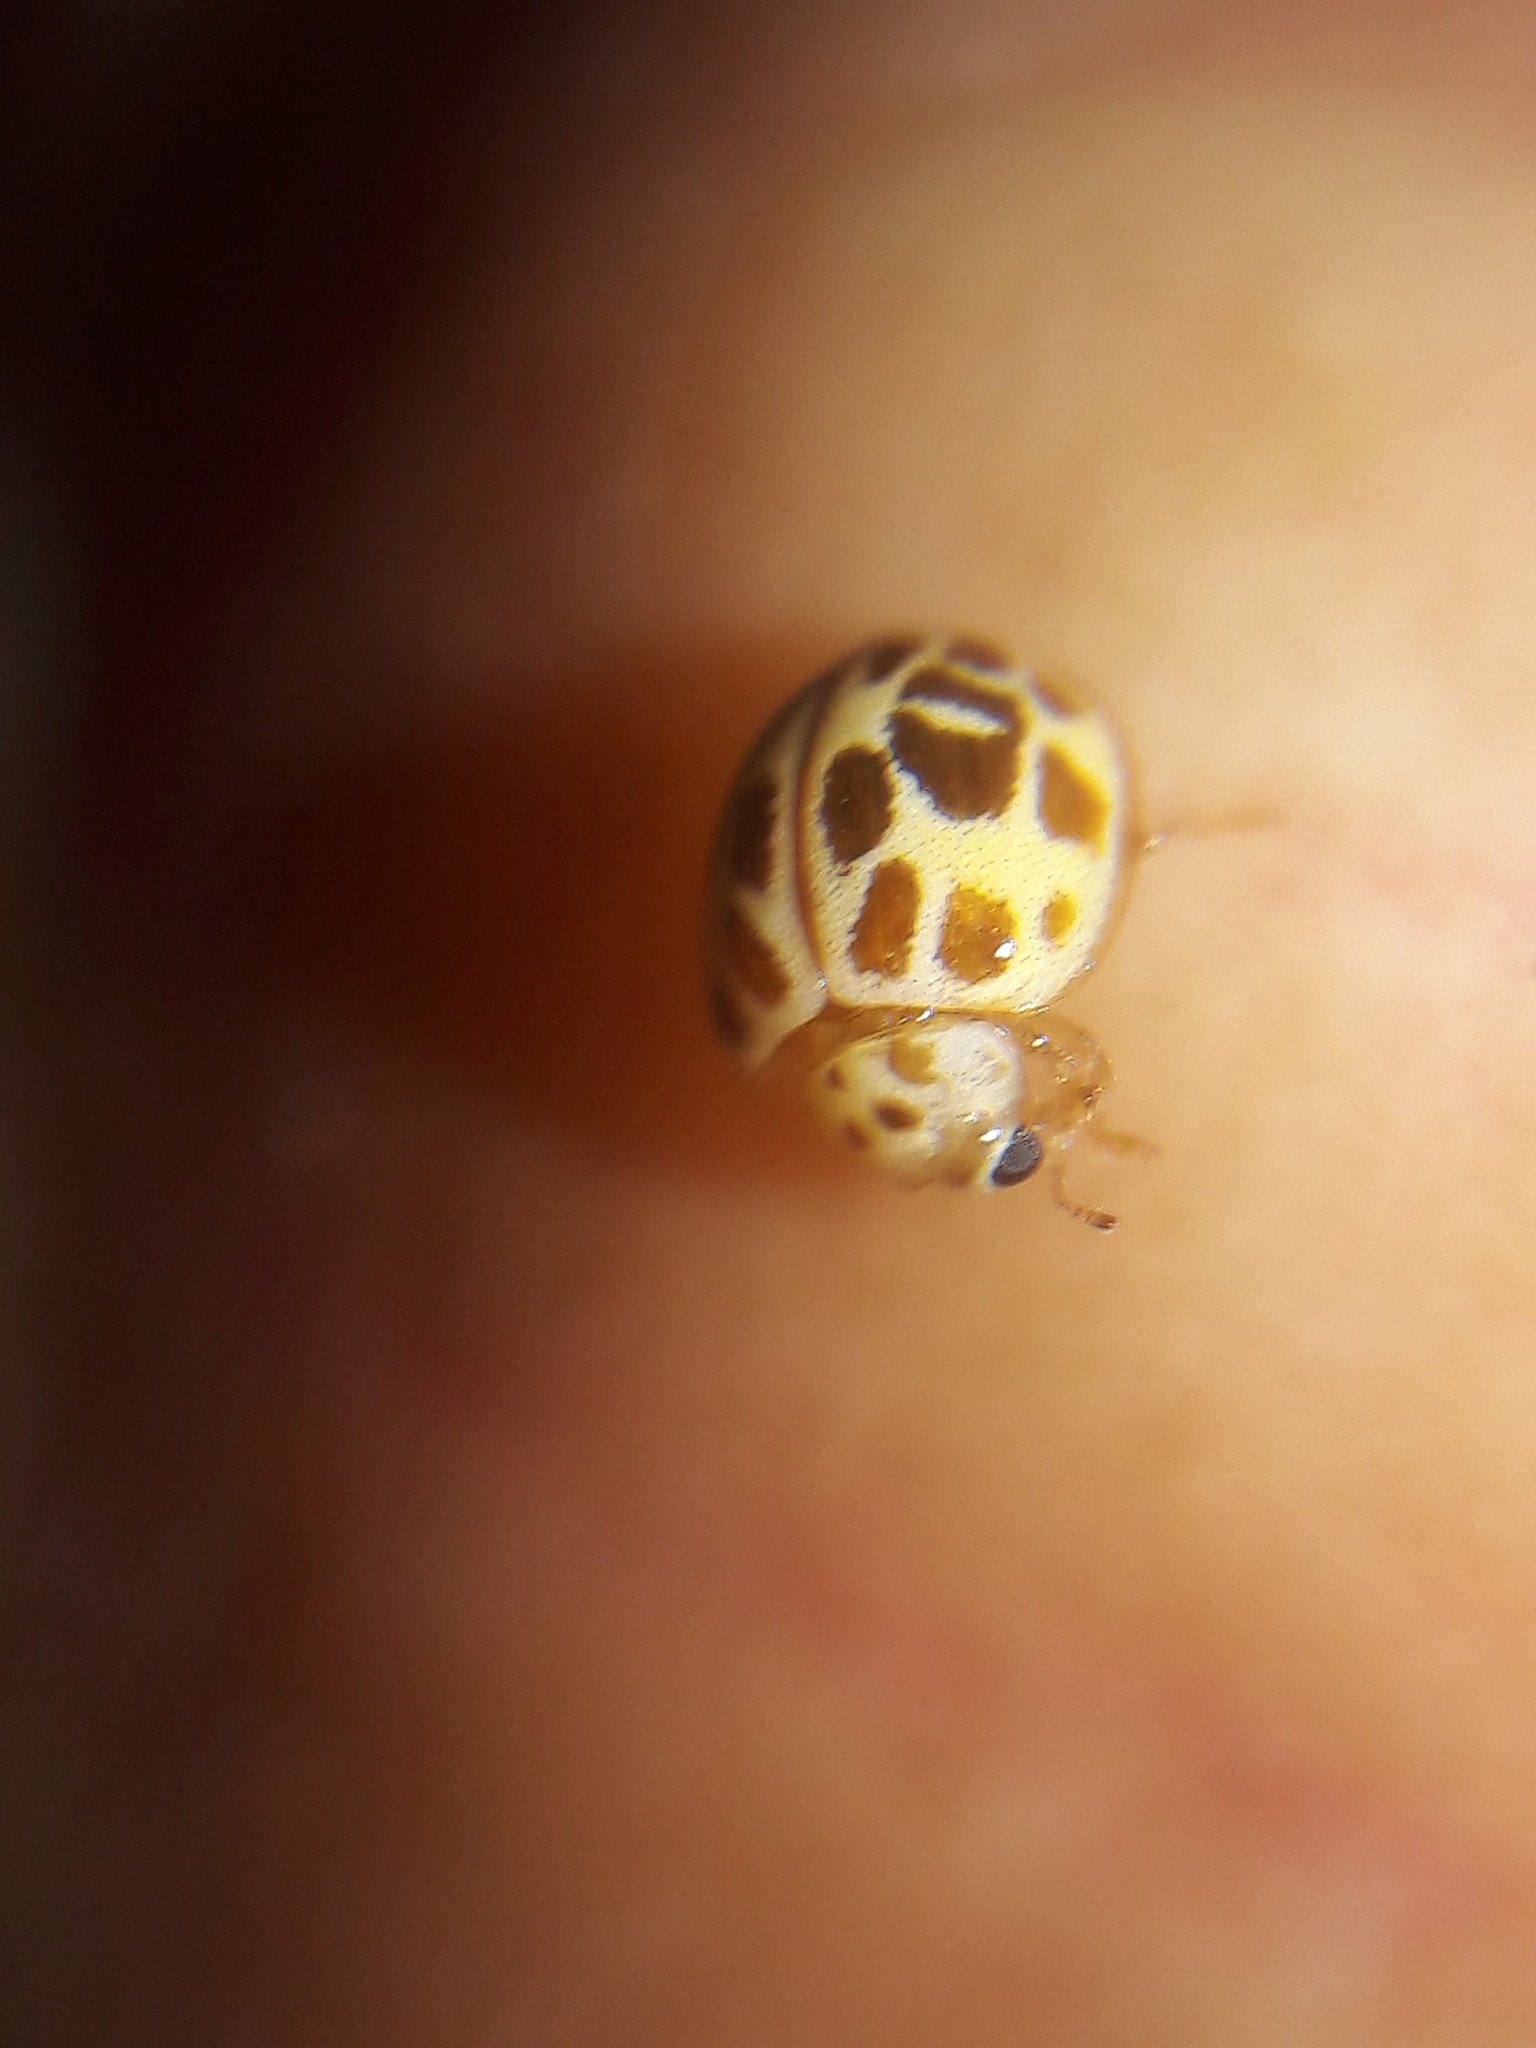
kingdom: Animalia
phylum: Arthropoda
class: Insecta
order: Coleoptera
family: Coccinellidae
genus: Psyllobora
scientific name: Psyllobora
